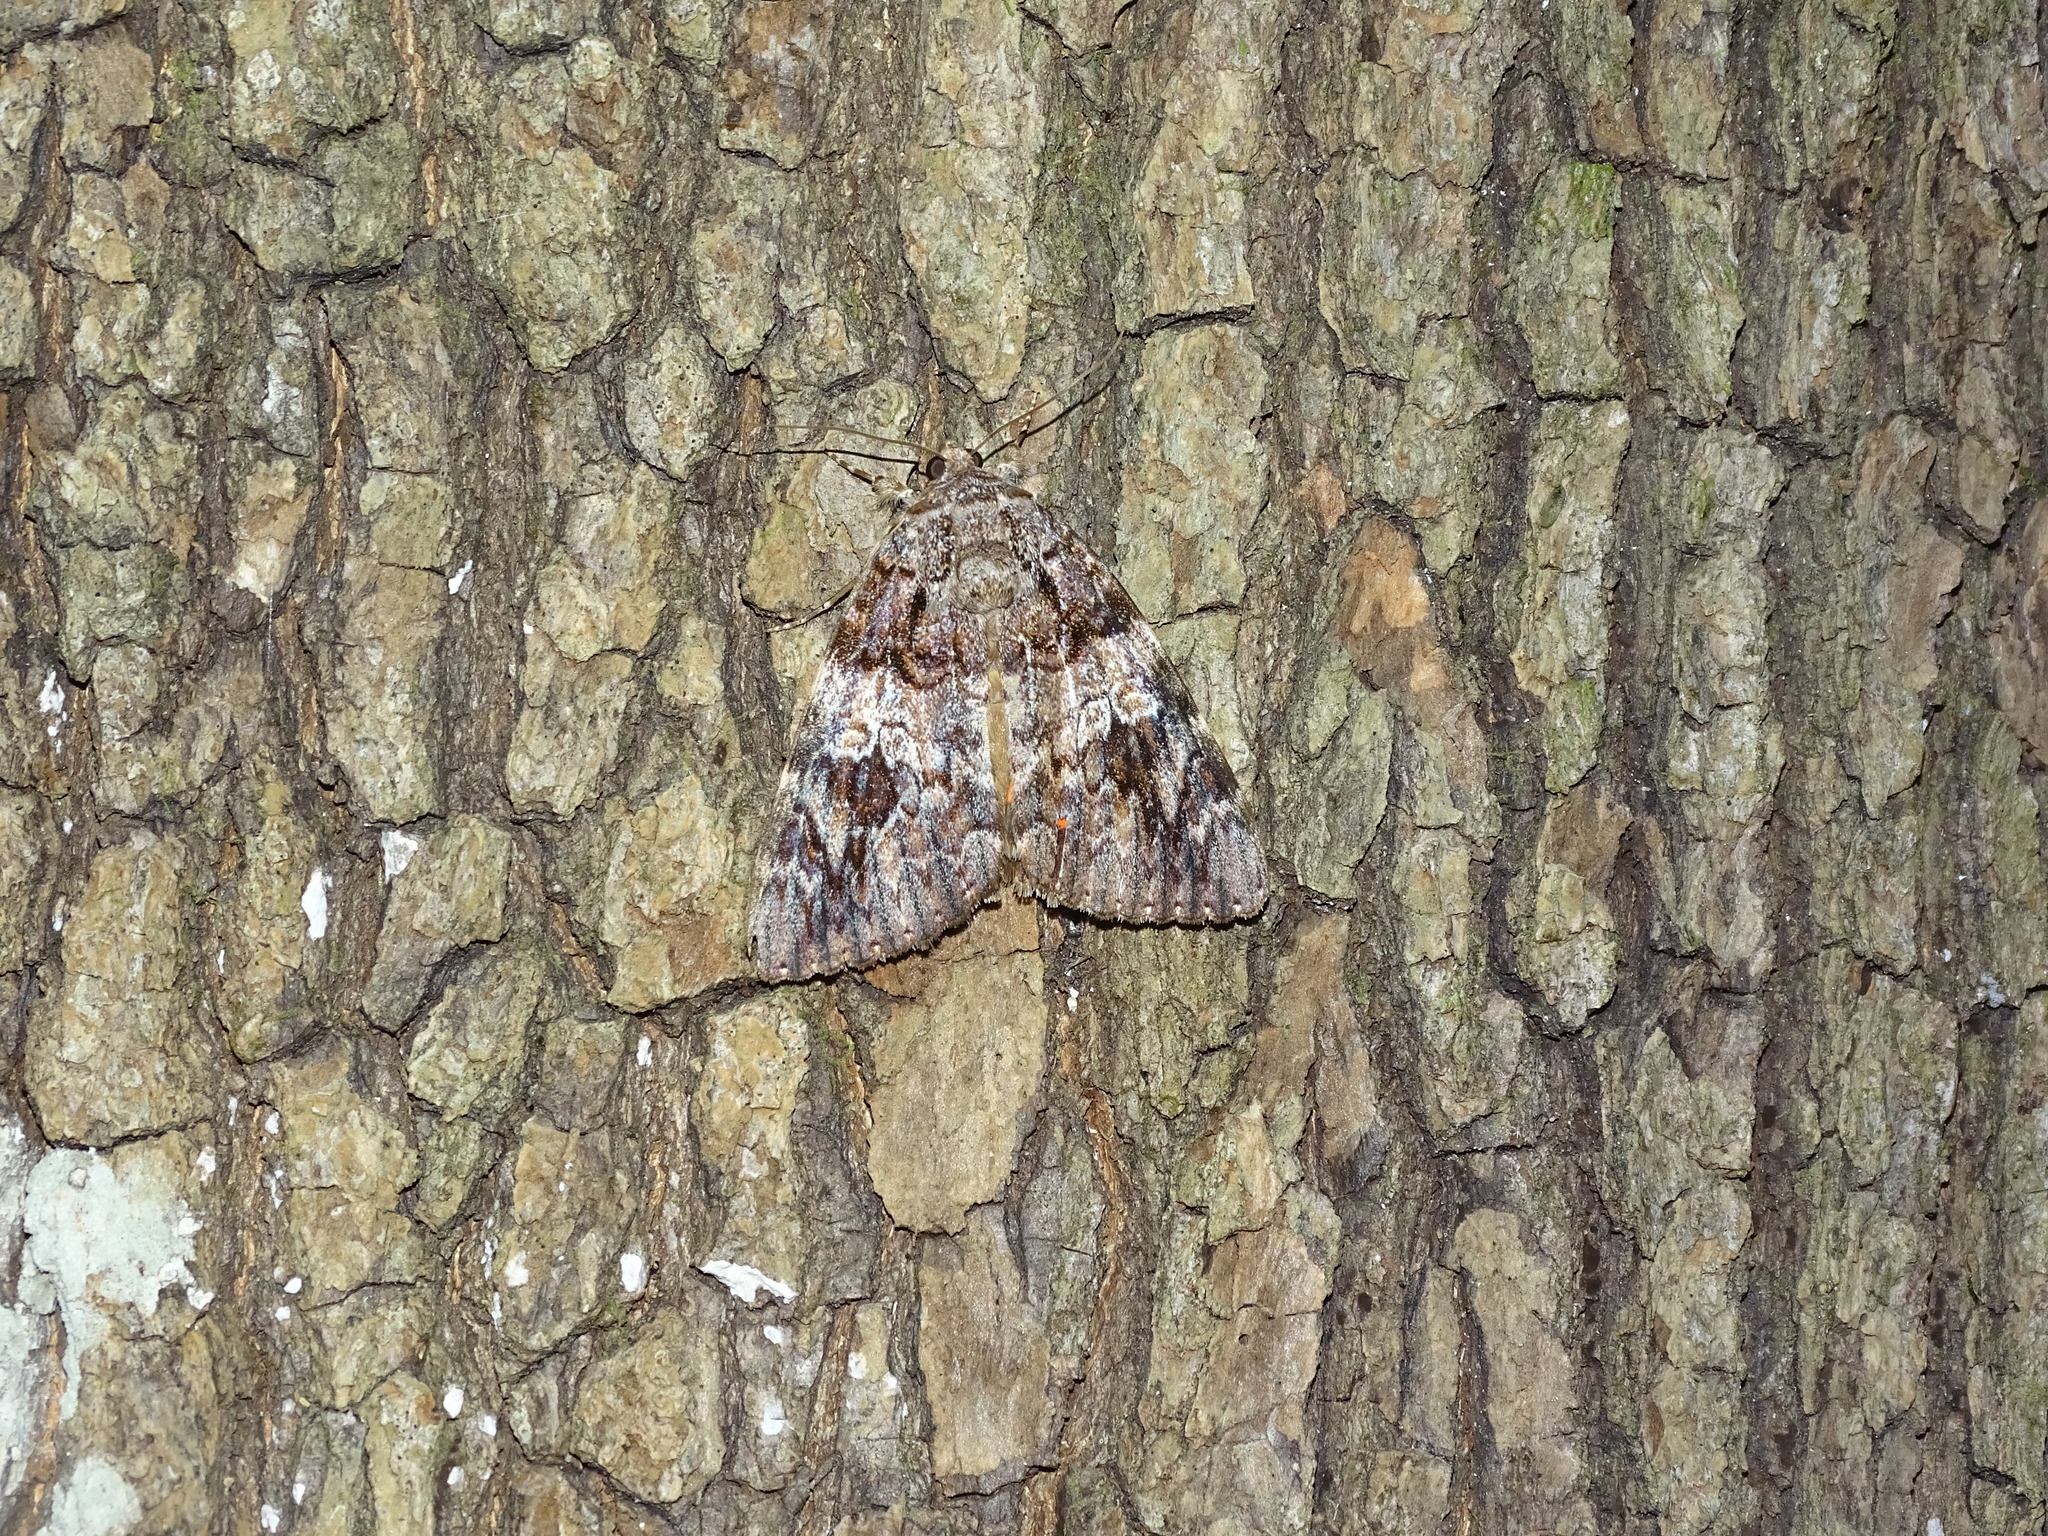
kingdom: Animalia
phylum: Arthropoda
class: Insecta
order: Lepidoptera
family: Erebidae
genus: Catocala
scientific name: Catocala ilia
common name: Ilia underwing
